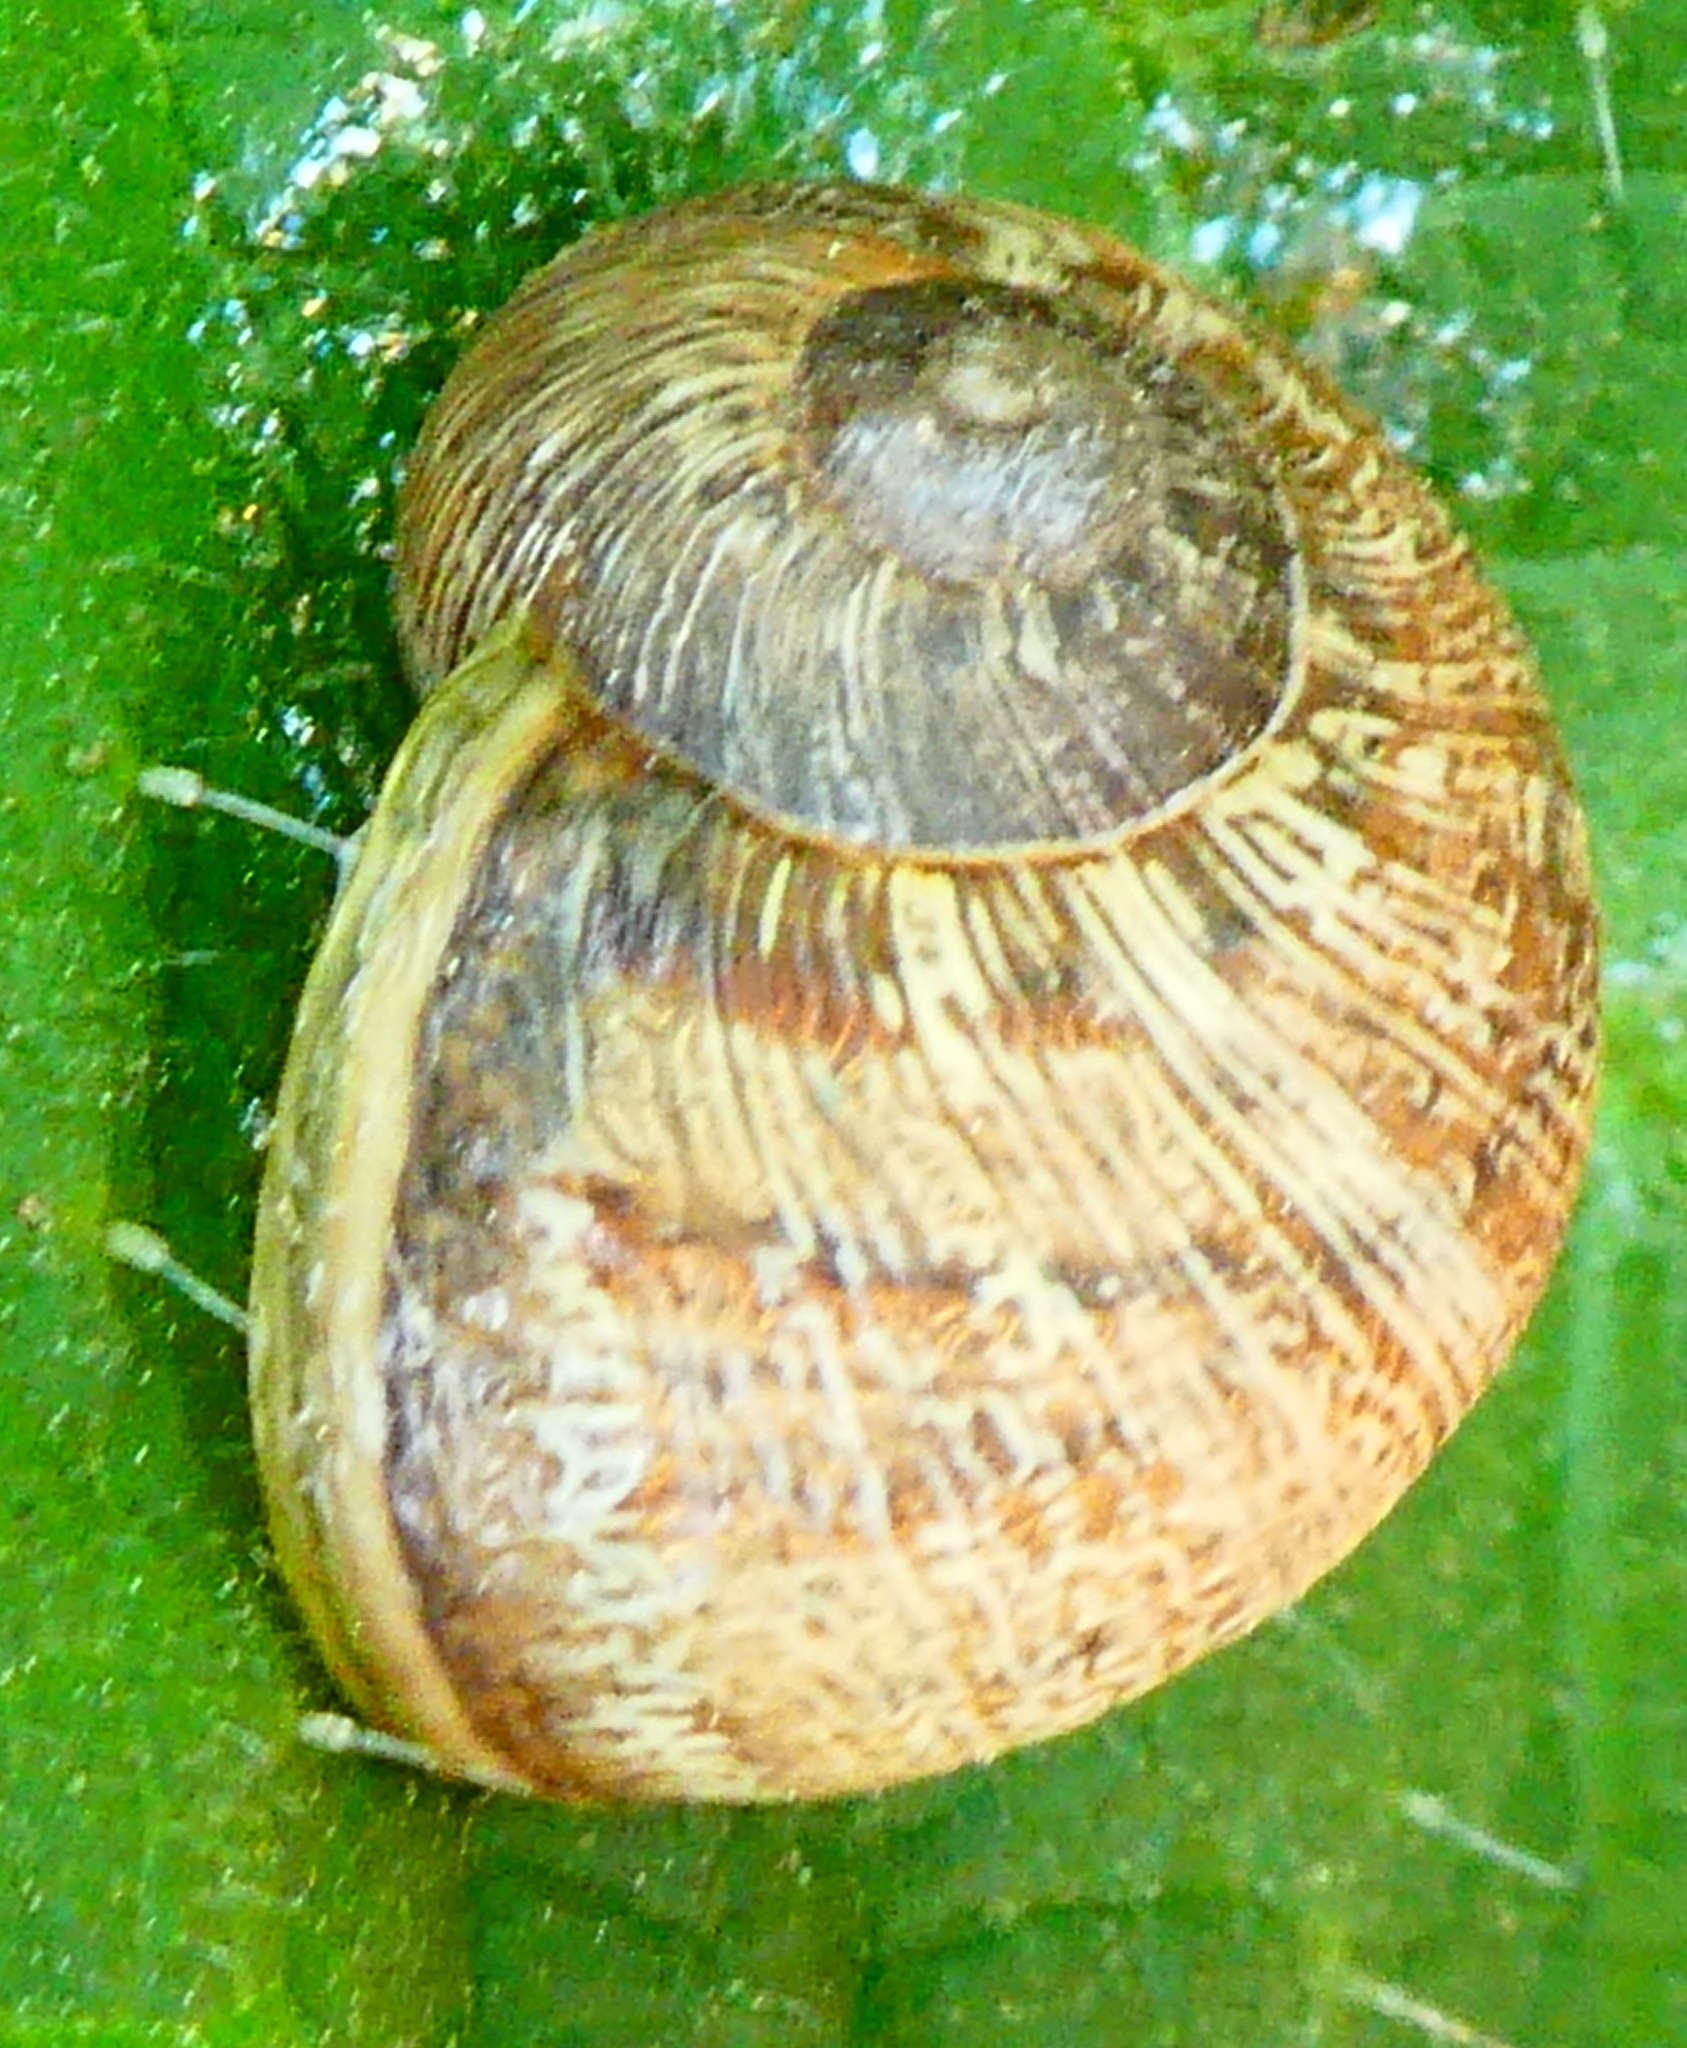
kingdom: Animalia
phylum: Mollusca
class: Gastropoda
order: Stylommatophora
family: Helicidae
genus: Cornu
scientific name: Cornu aspersum
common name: Brown garden snail
